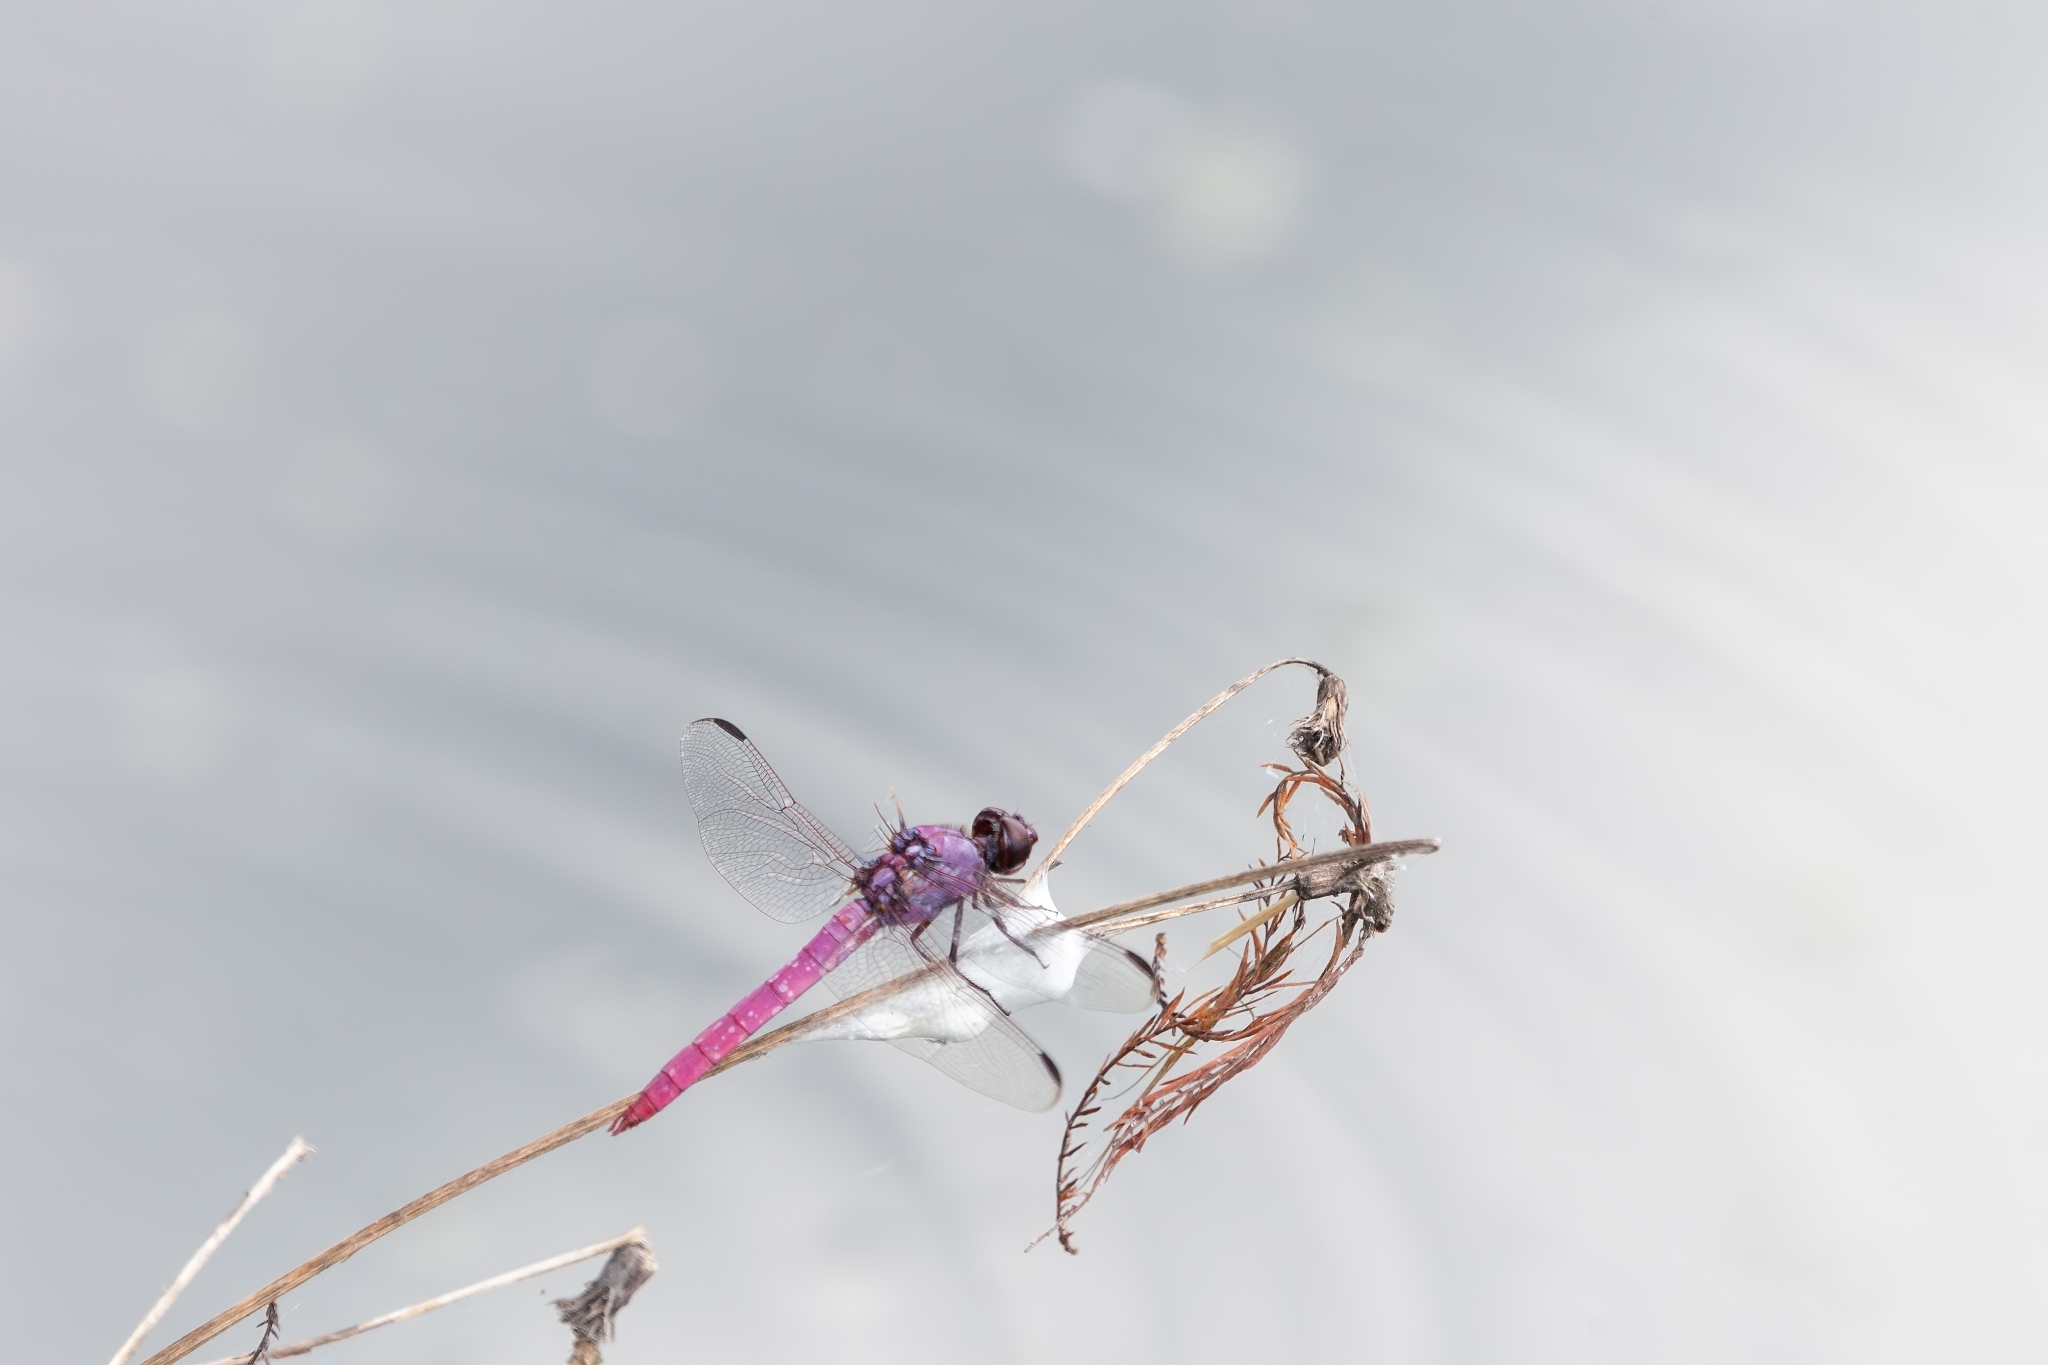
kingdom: Animalia
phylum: Arthropoda
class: Insecta
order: Odonata
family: Libellulidae
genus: Orthemis
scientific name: Orthemis ferruginea
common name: Roseate skimmer
